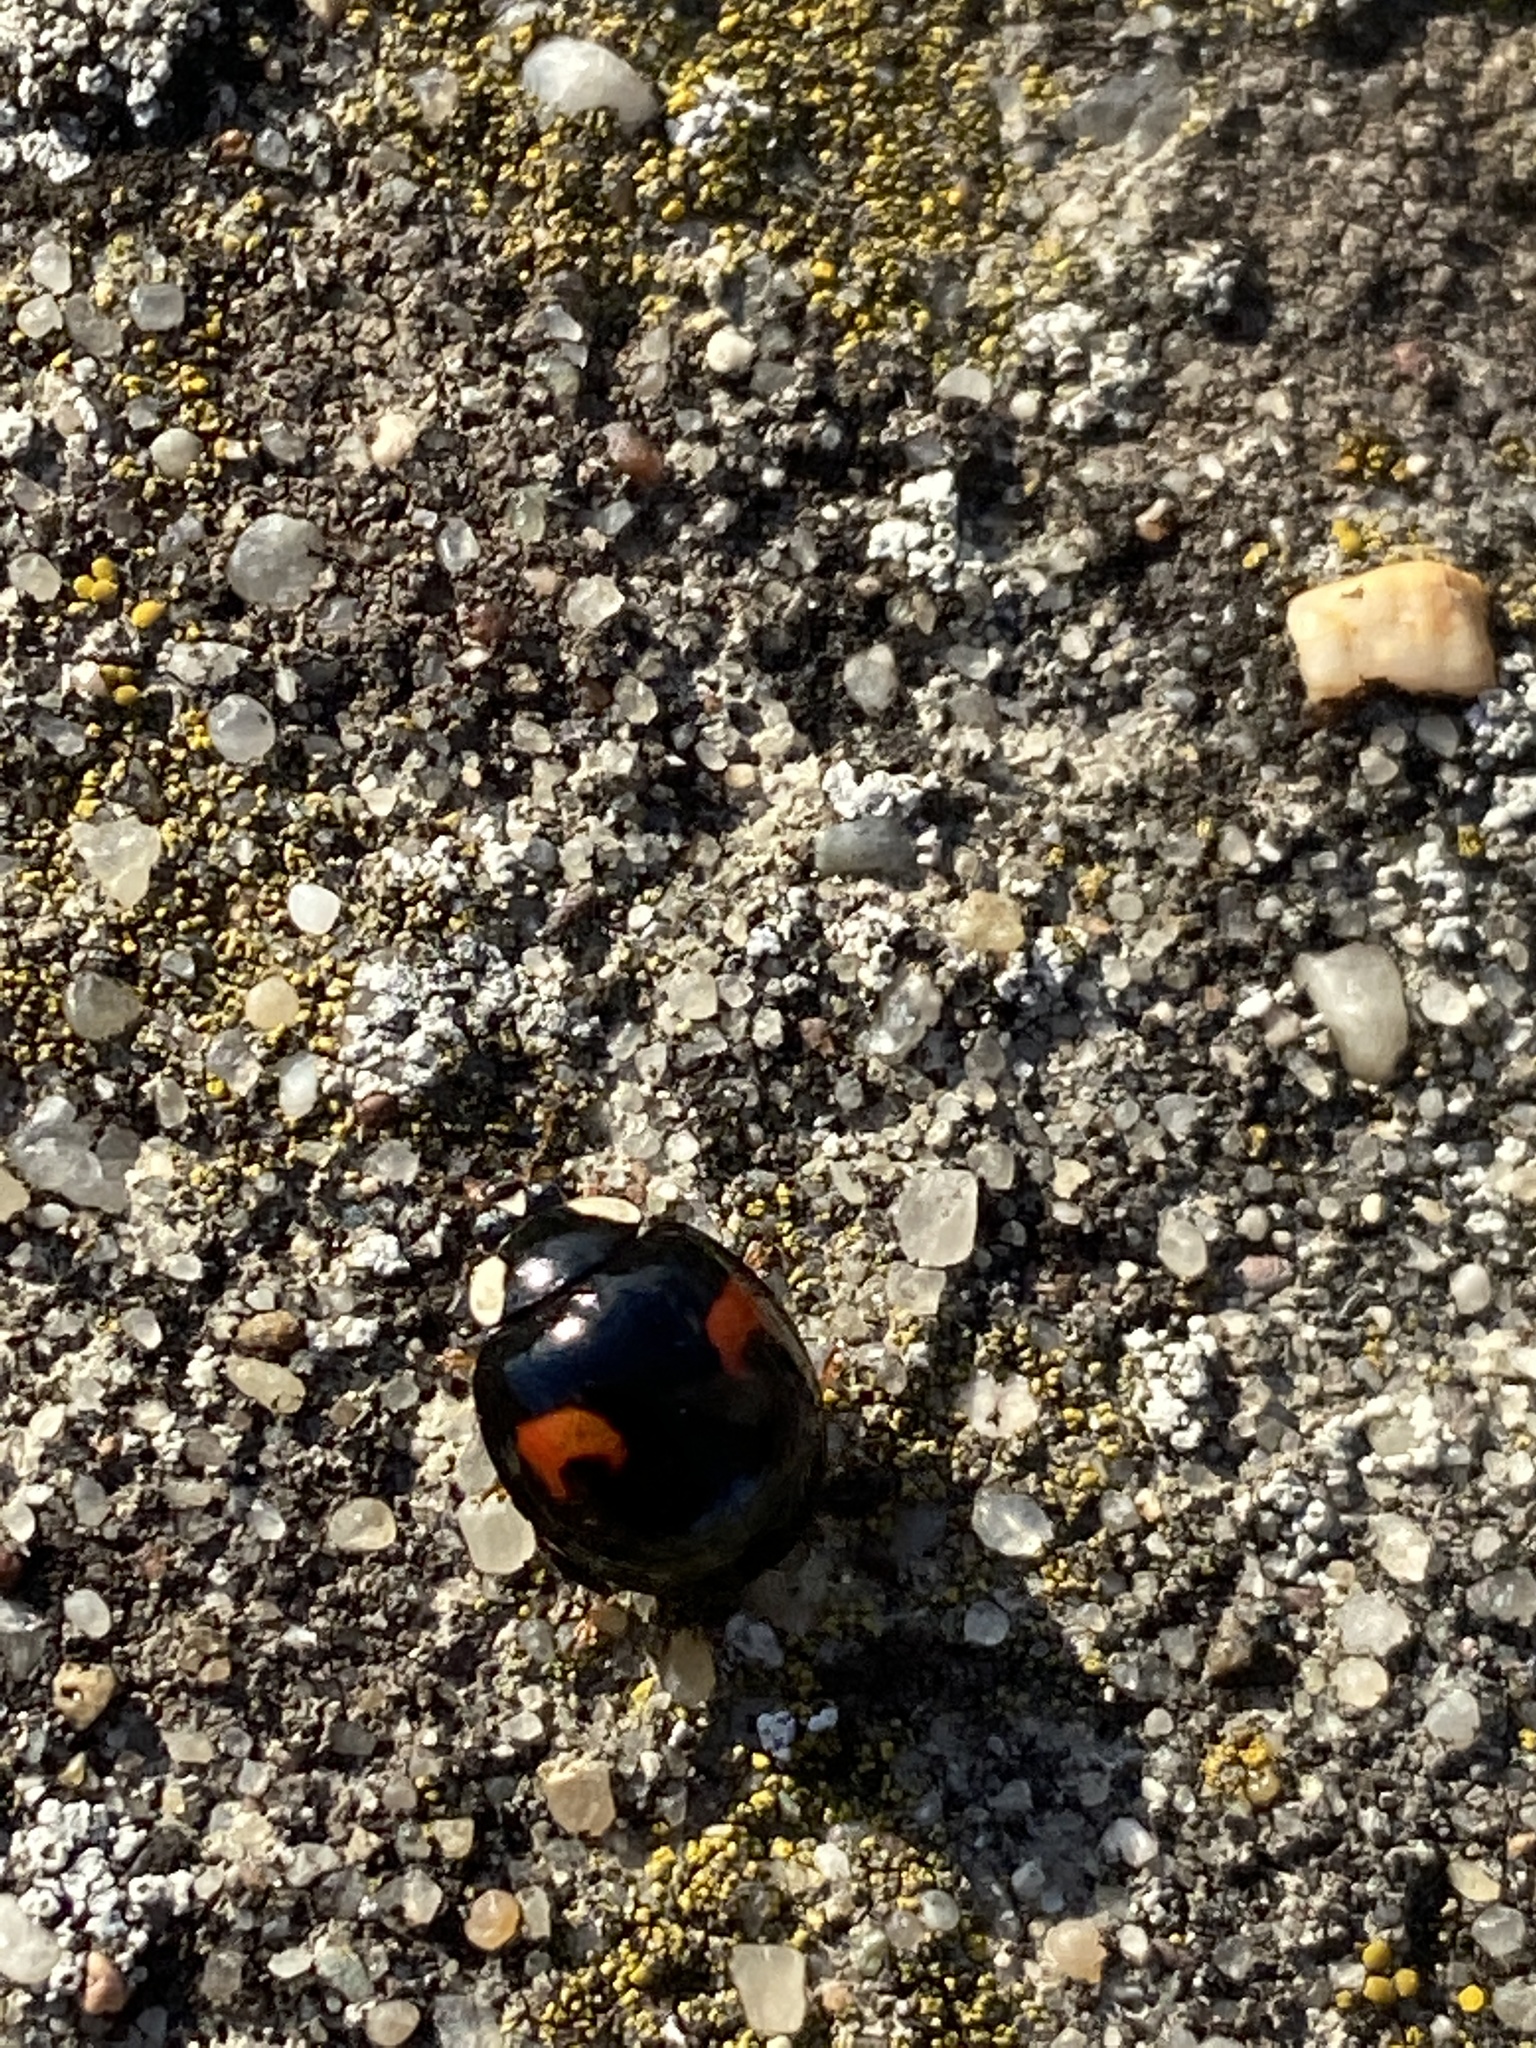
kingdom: Animalia
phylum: Arthropoda
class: Insecta
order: Coleoptera
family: Coccinellidae
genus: Harmonia
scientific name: Harmonia axyridis
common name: Harlequin ladybird
